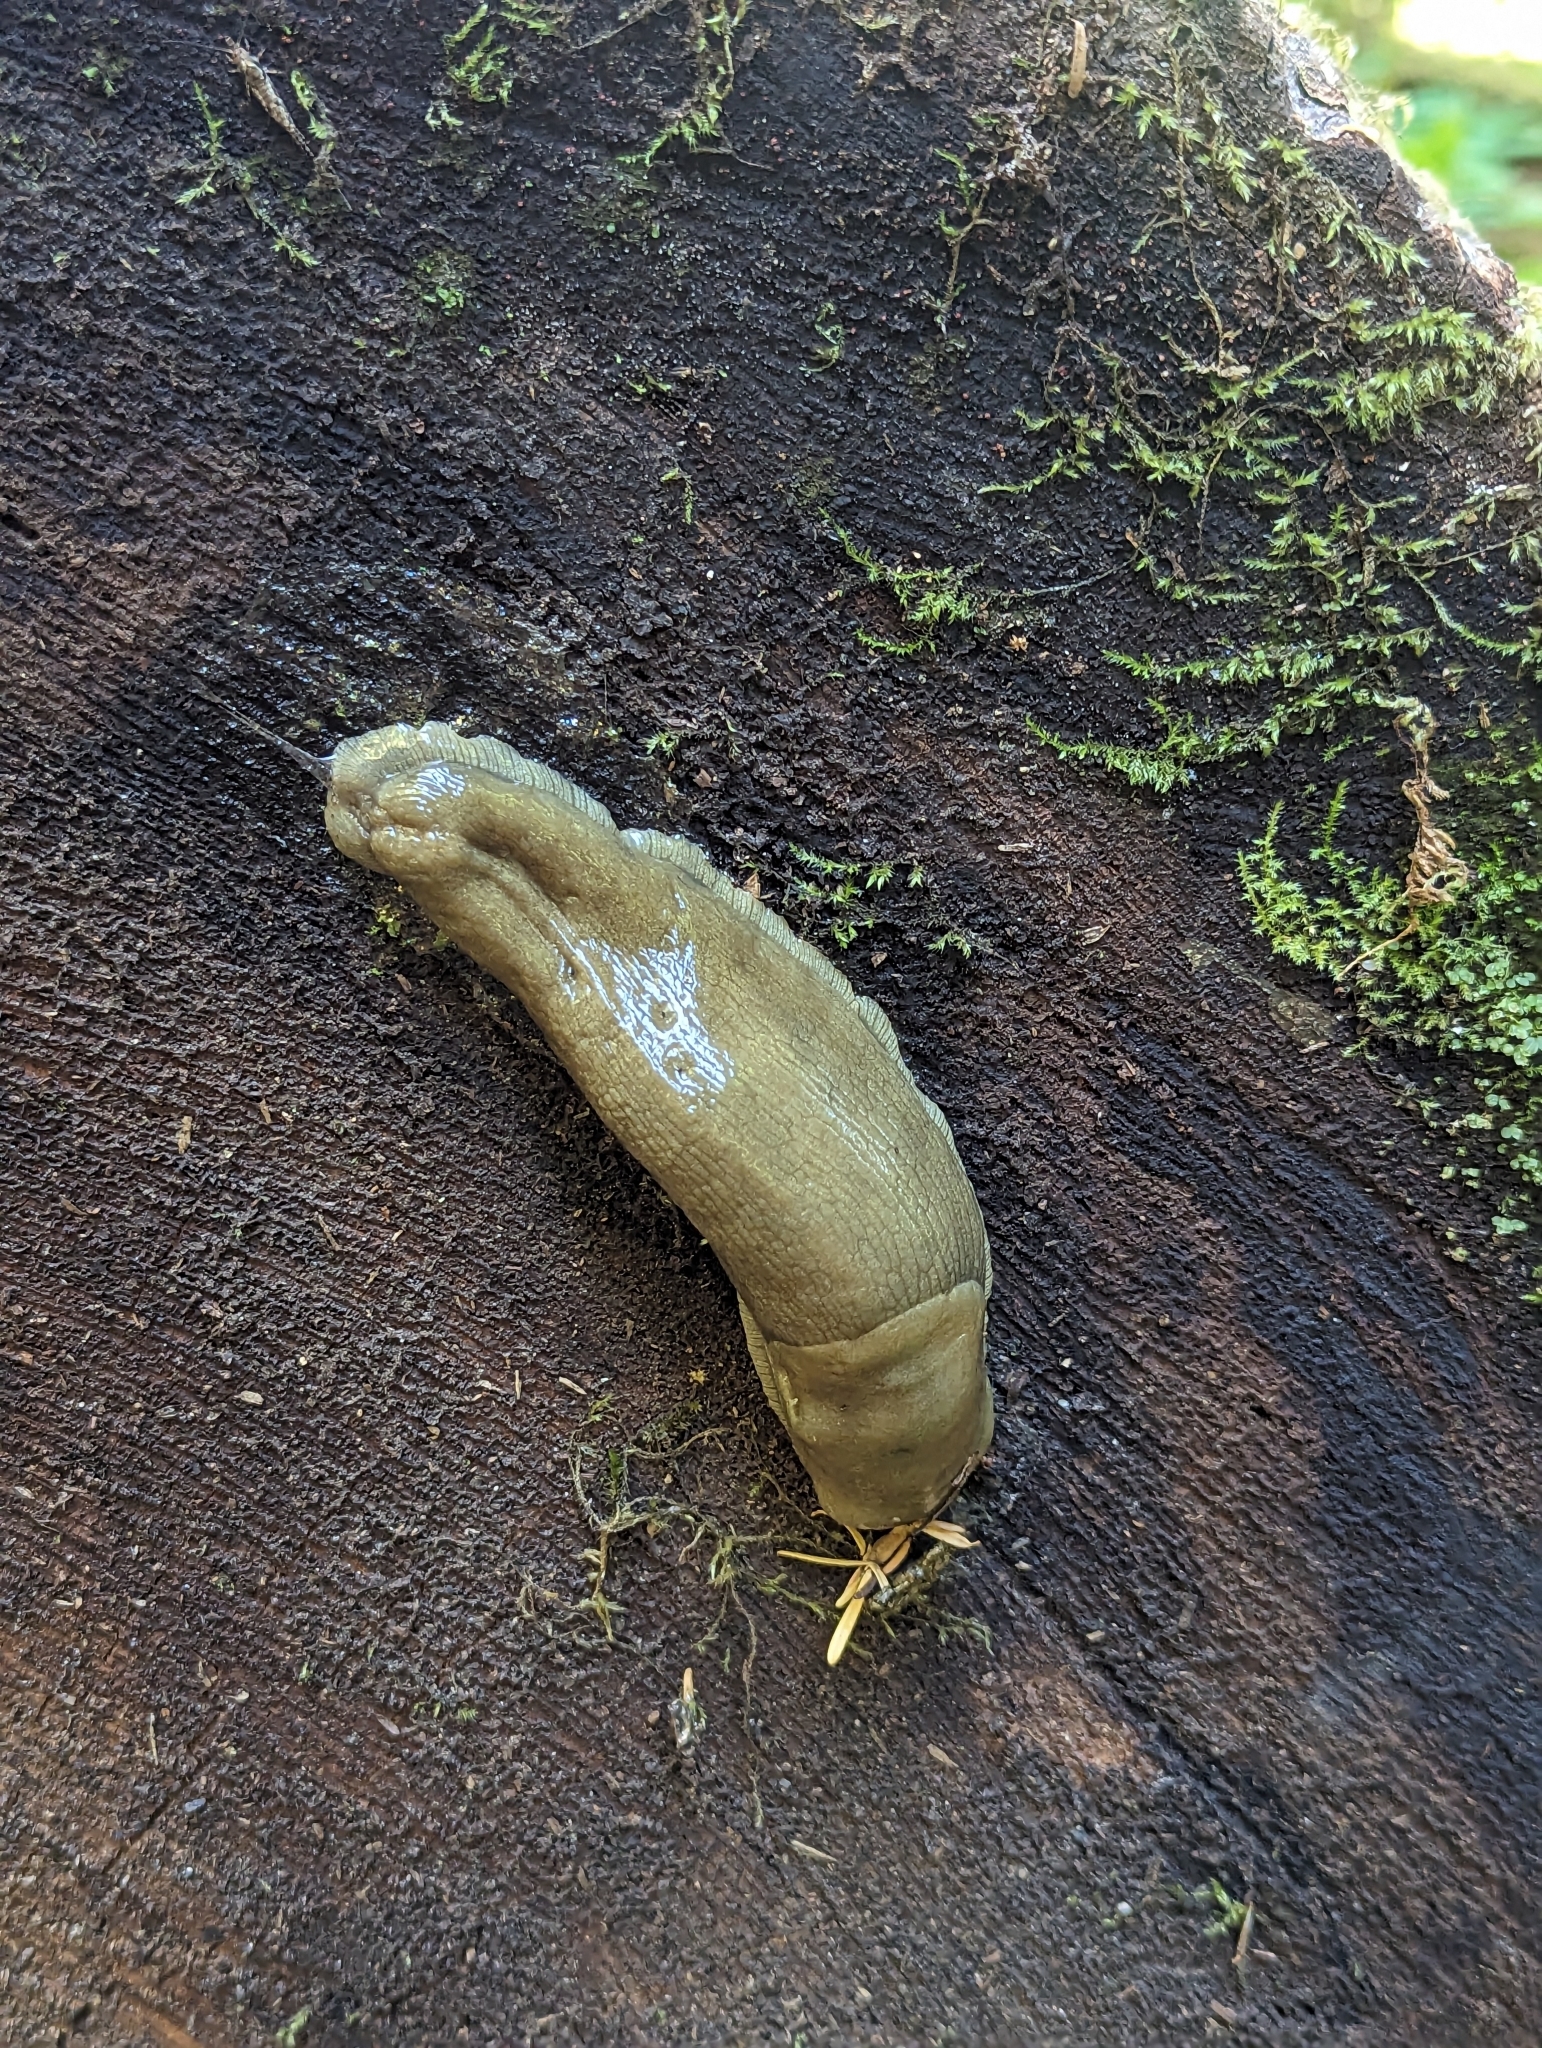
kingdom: Animalia
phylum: Mollusca
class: Gastropoda
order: Stylommatophora
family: Ariolimacidae
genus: Ariolimax
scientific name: Ariolimax columbianus
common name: Pacific banana slug
